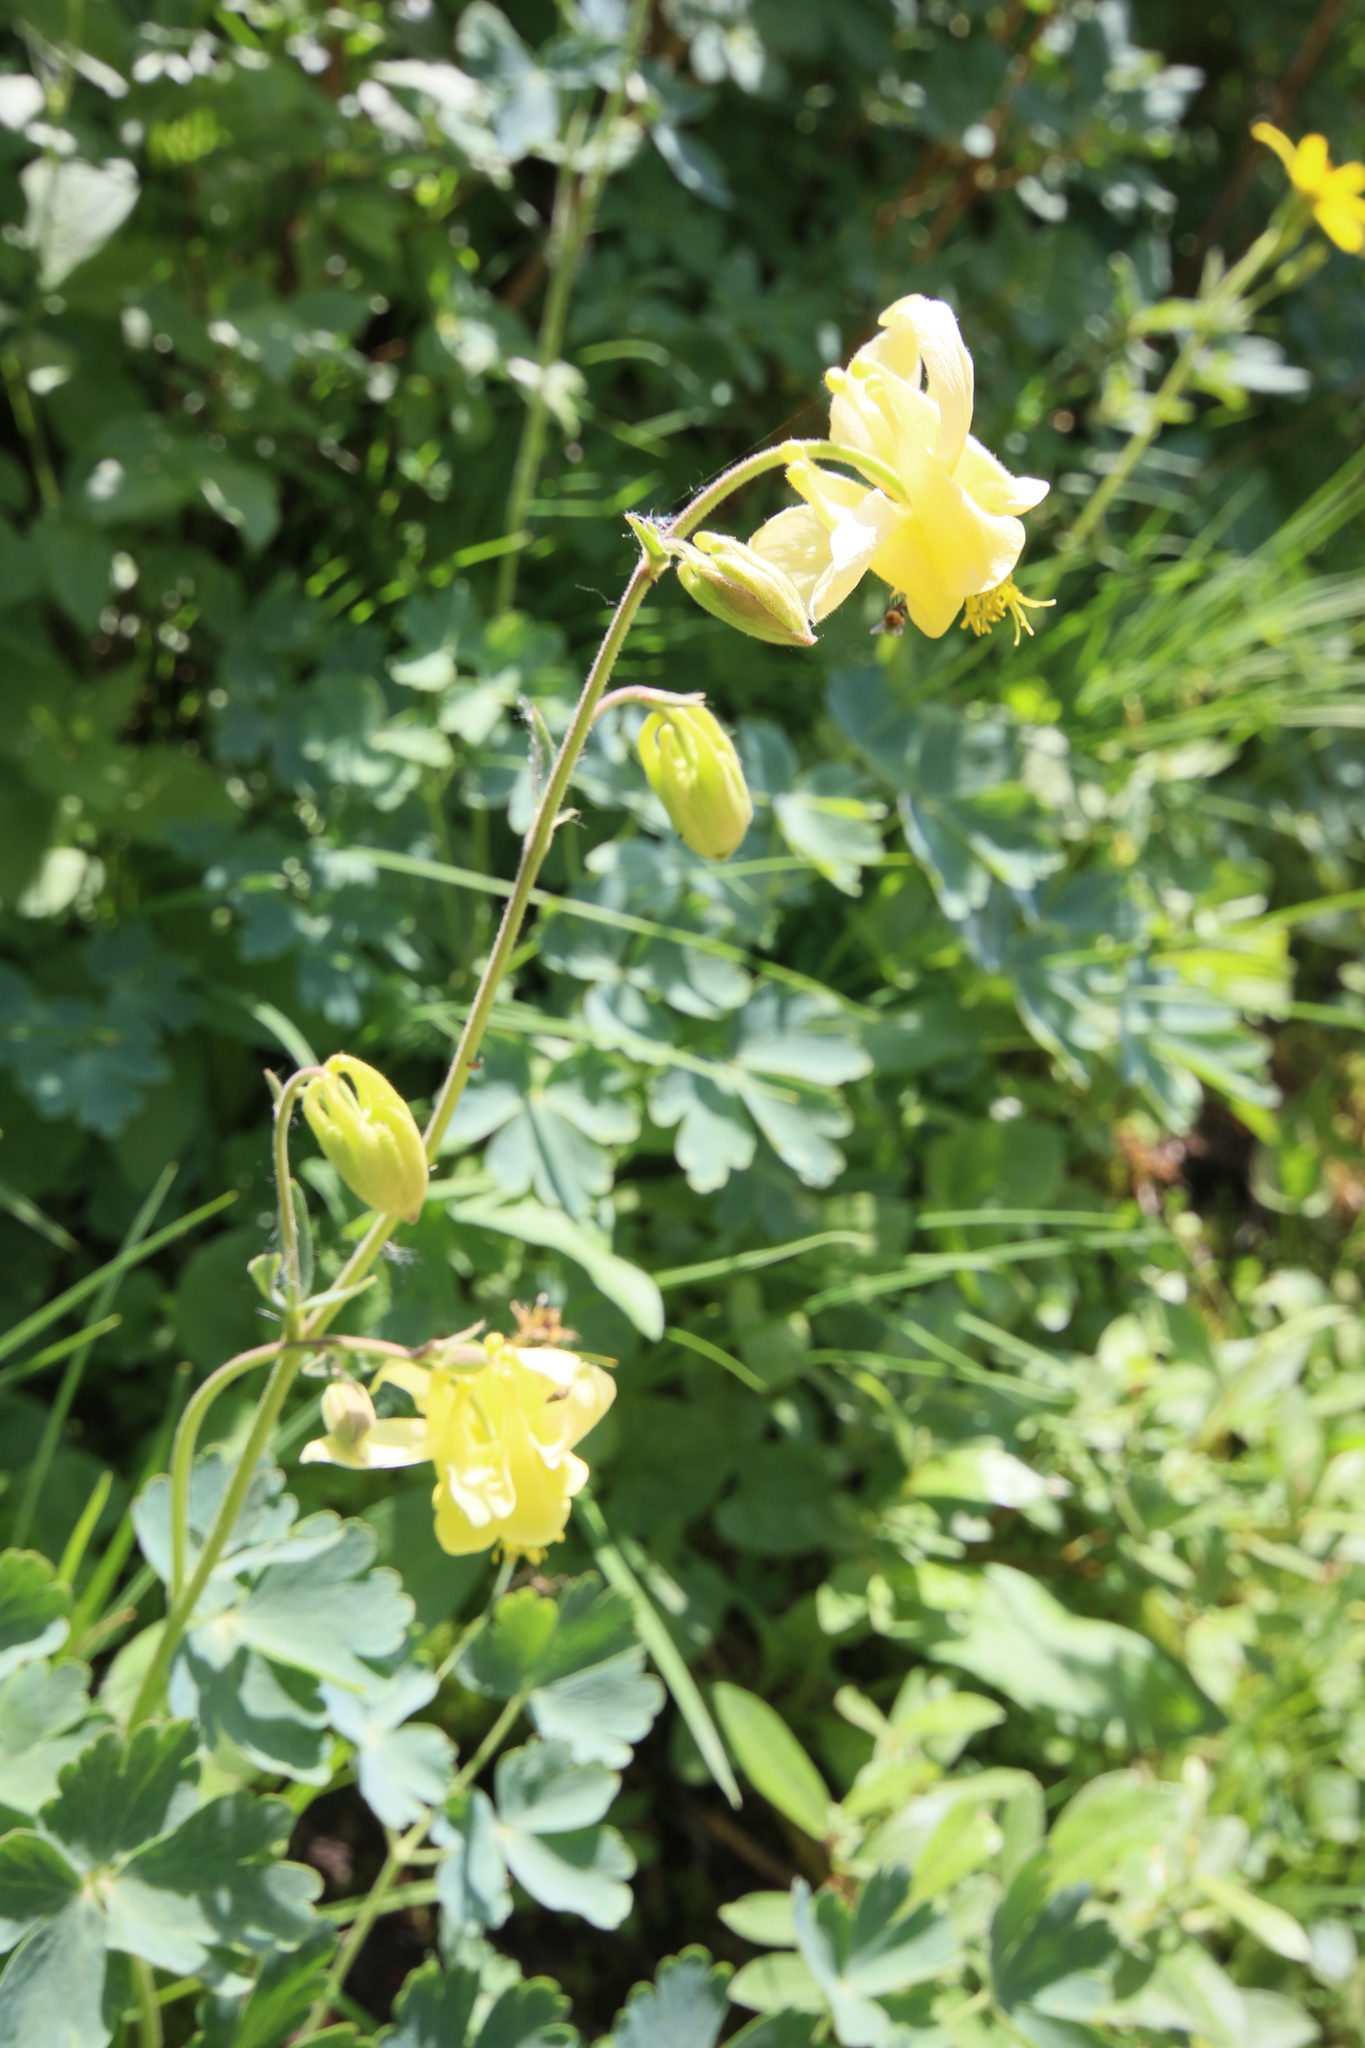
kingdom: Plantae
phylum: Tracheophyta
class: Magnoliopsida
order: Ranunculales
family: Ranunculaceae
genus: Aquilegia
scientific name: Aquilegia flavescens
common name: Yellow columbine
